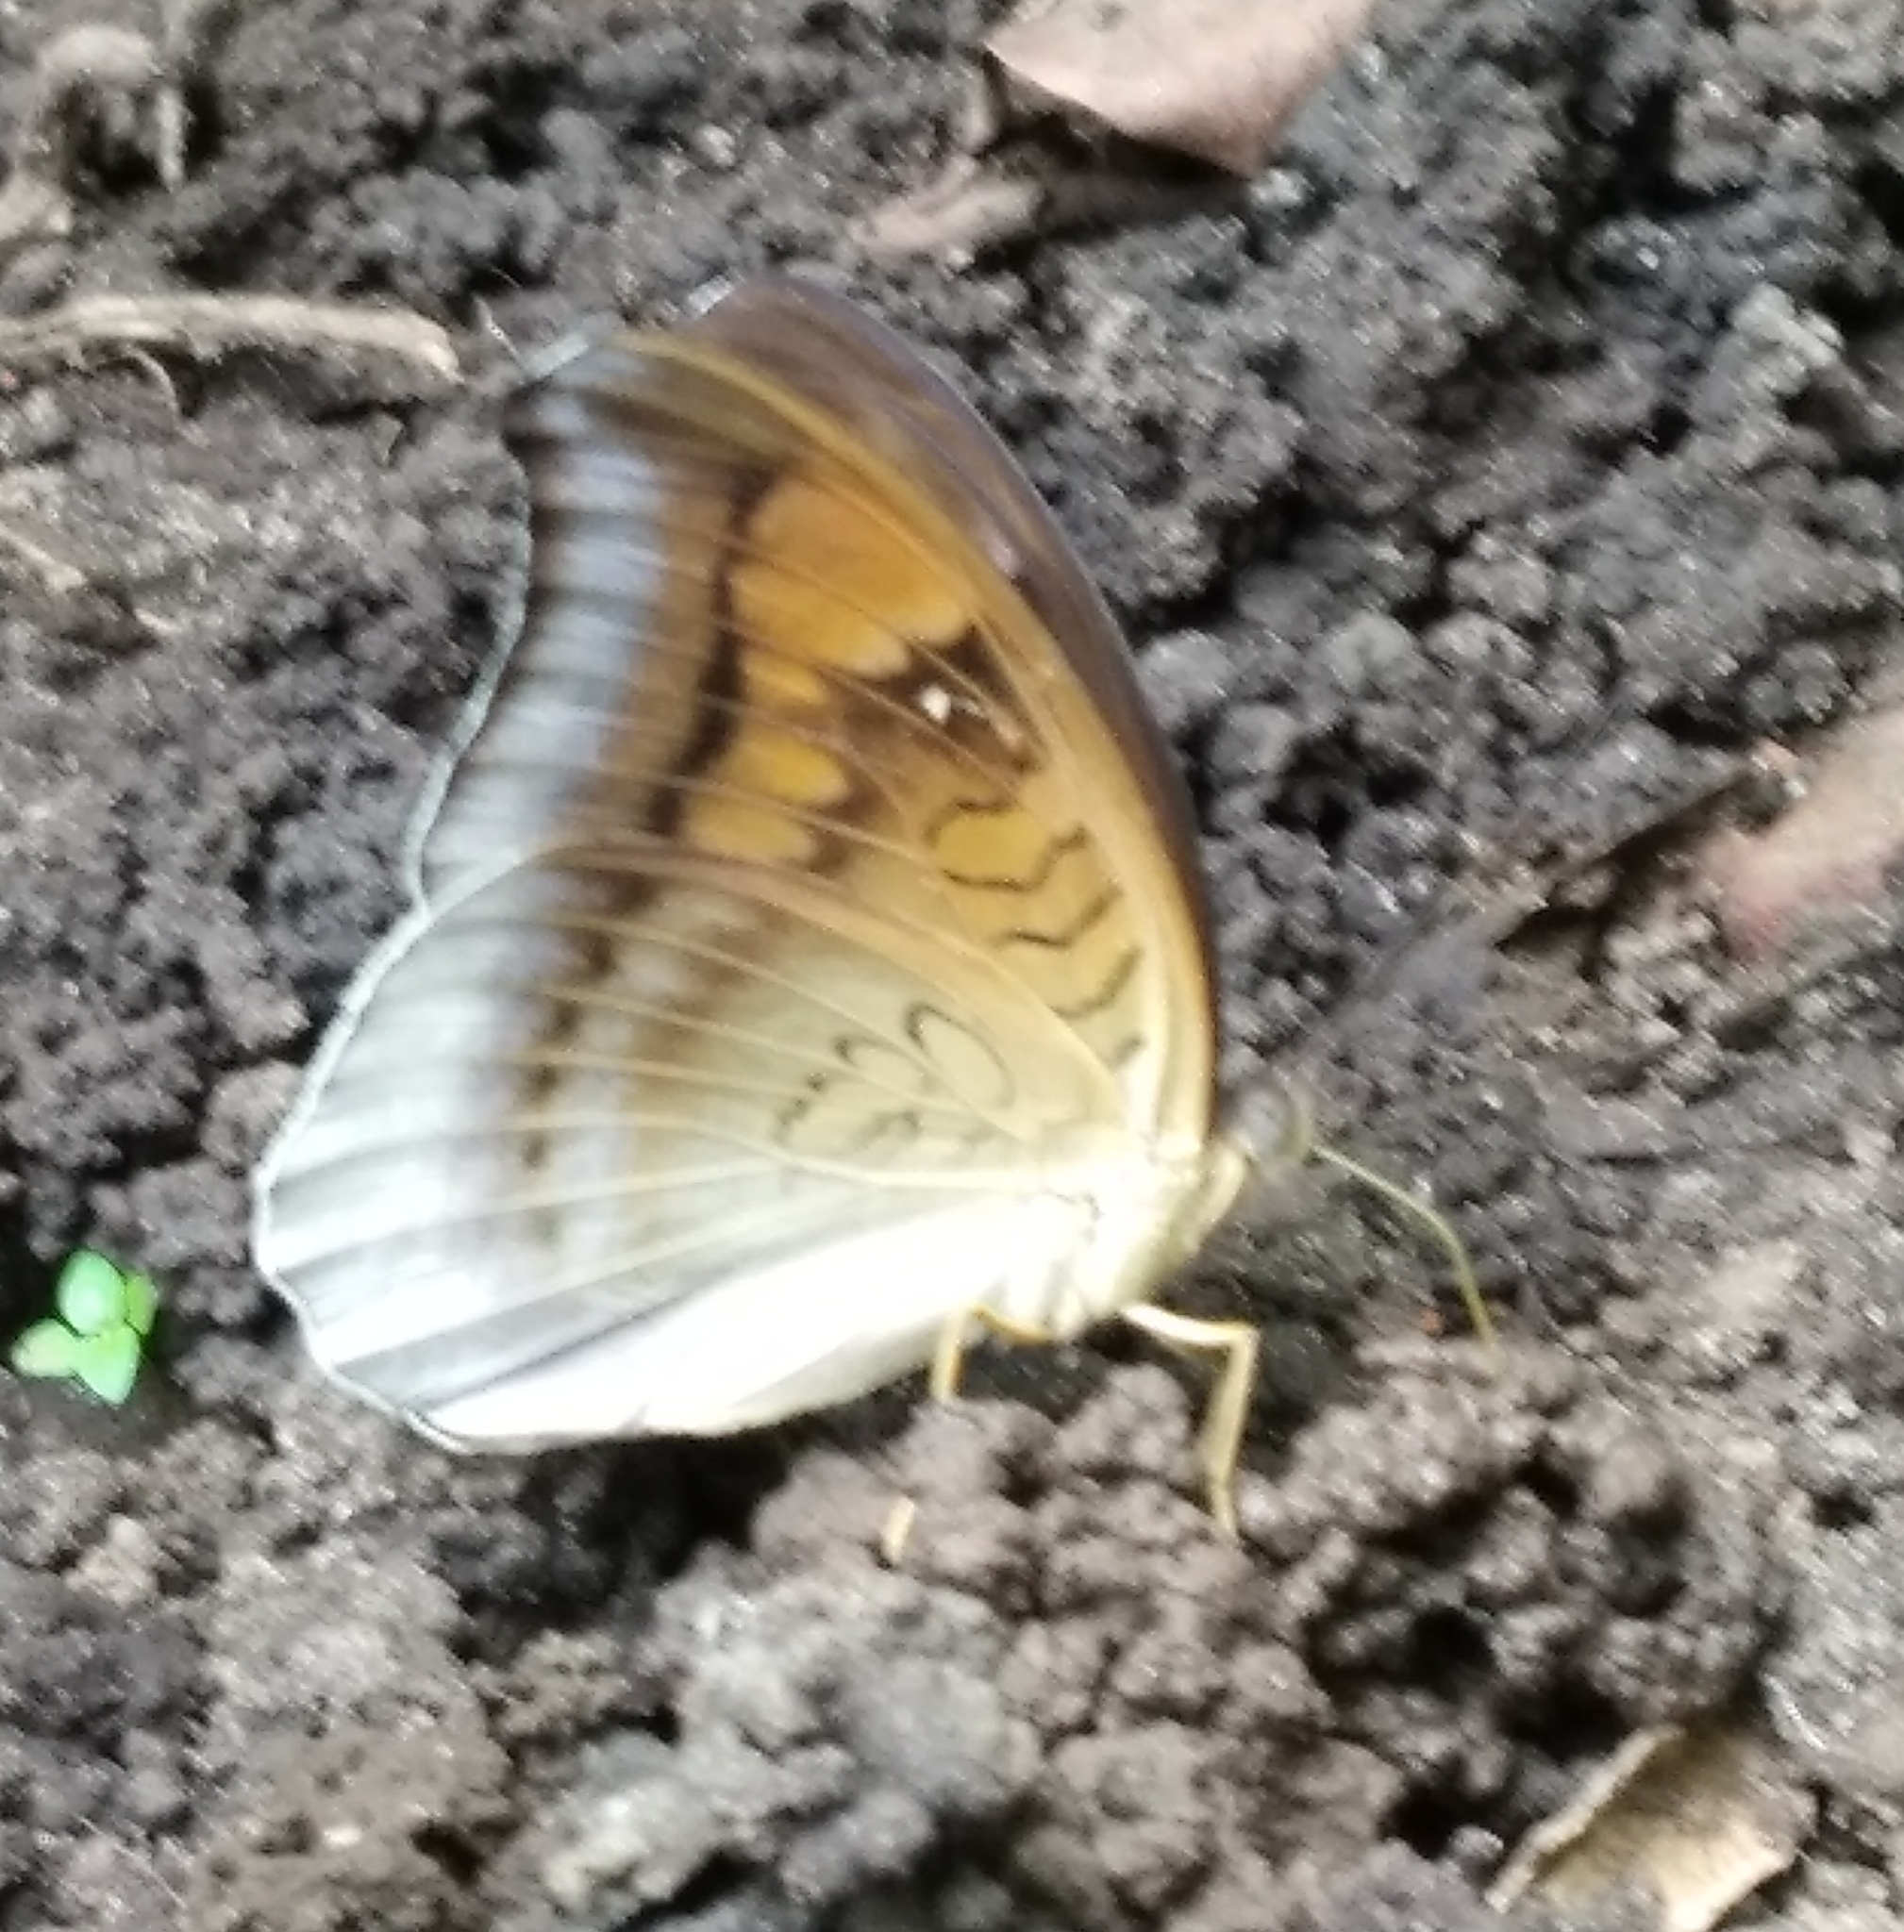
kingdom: Animalia
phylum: Arthropoda
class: Insecta
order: Lepidoptera
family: Nymphalidae
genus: Tanaecia
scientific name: Tanaecia lepidea
